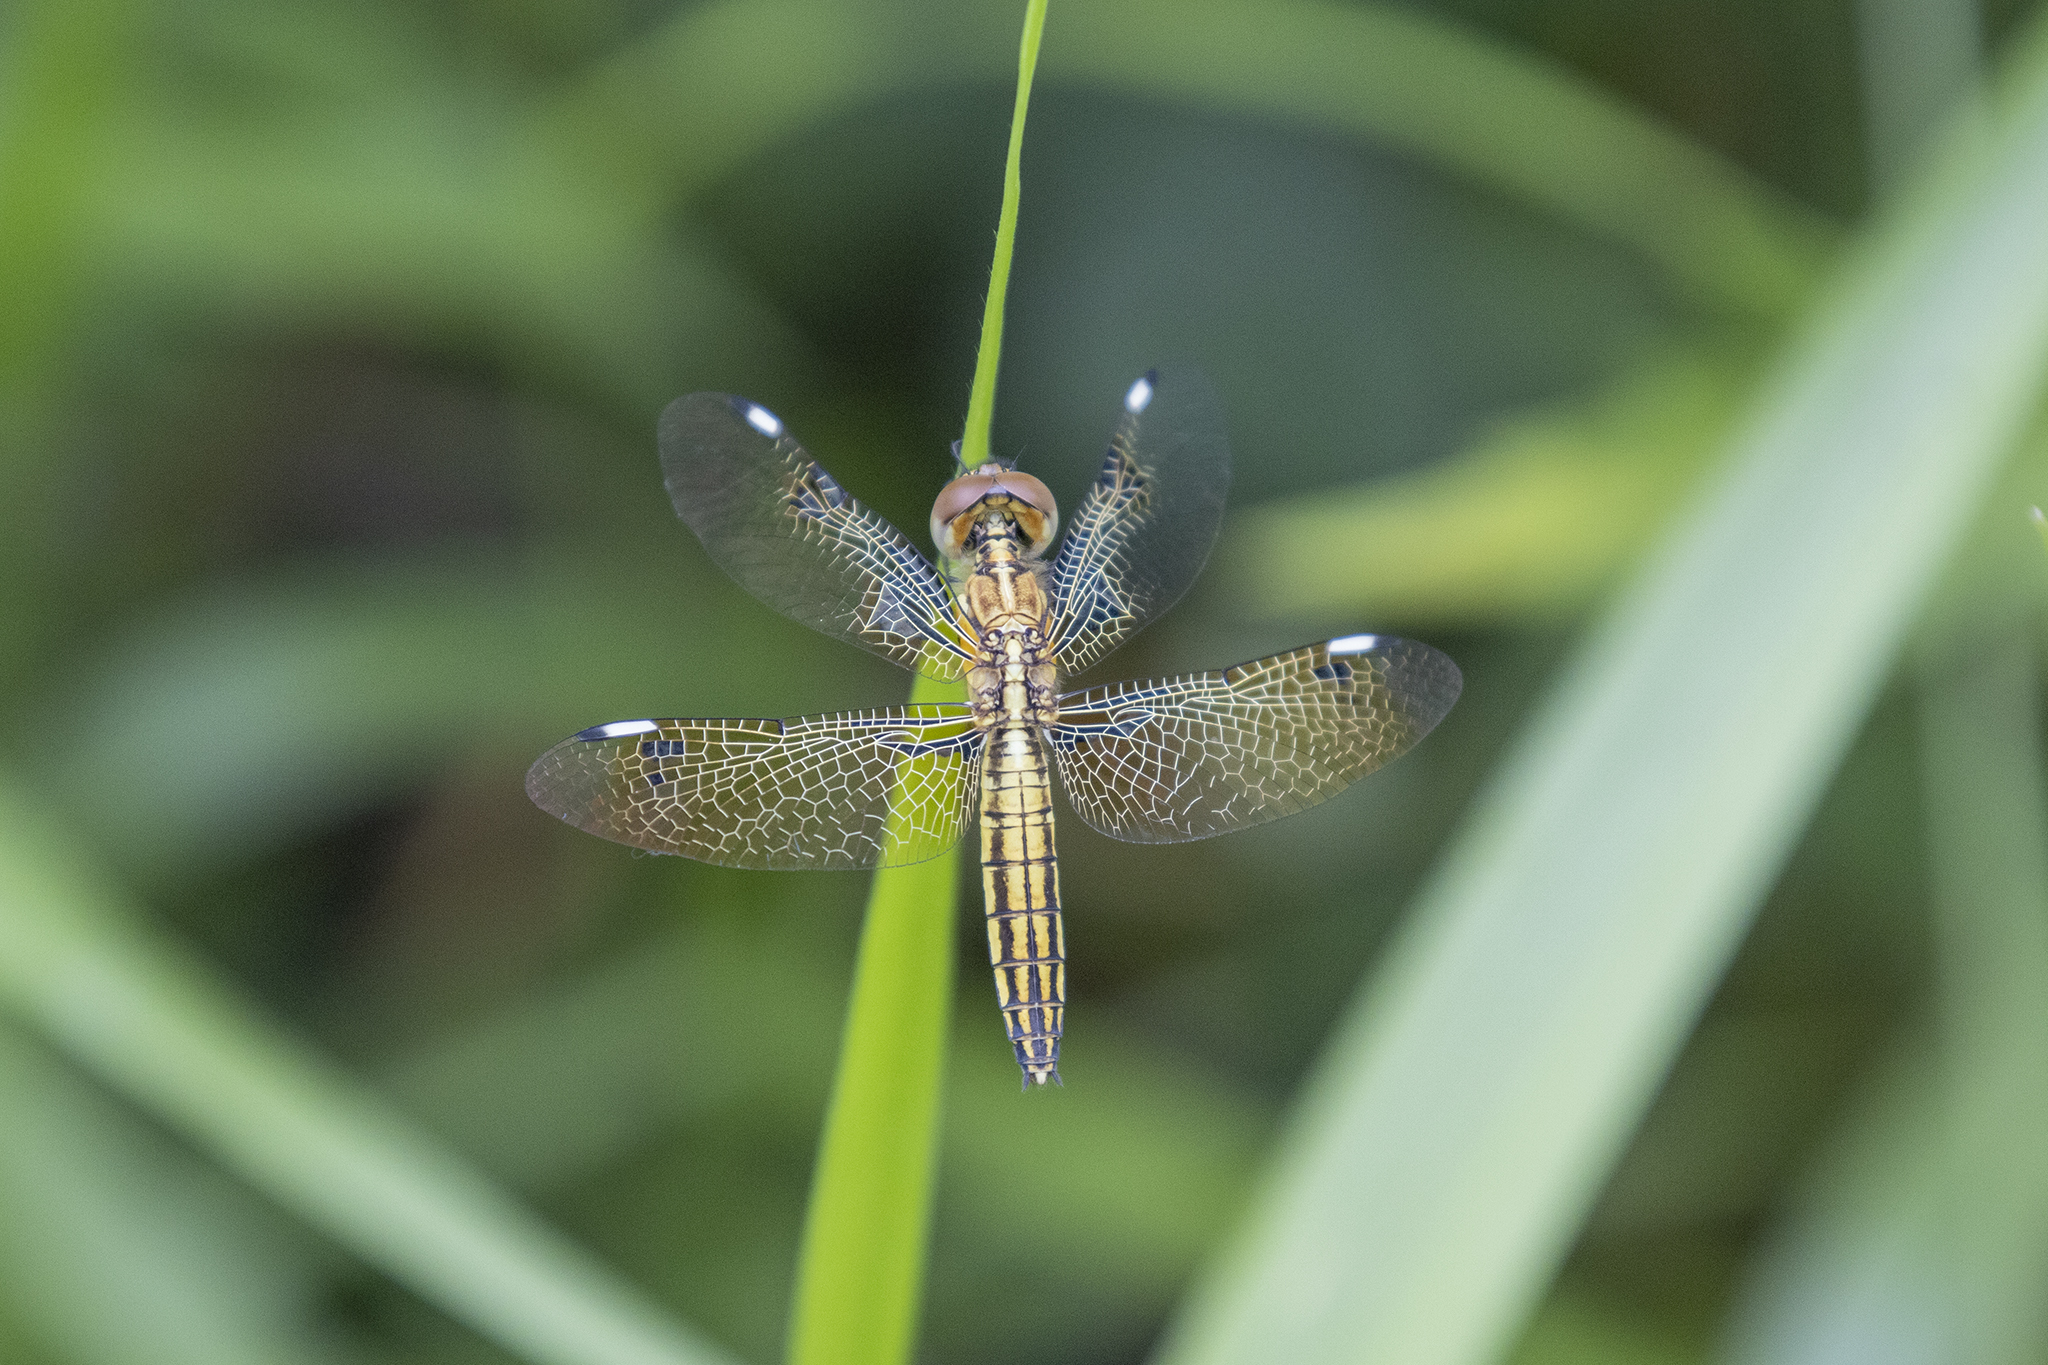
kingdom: Animalia
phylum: Arthropoda
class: Insecta
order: Odonata
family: Libellulidae
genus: Palpopleura
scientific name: Palpopleura sexmaculata
